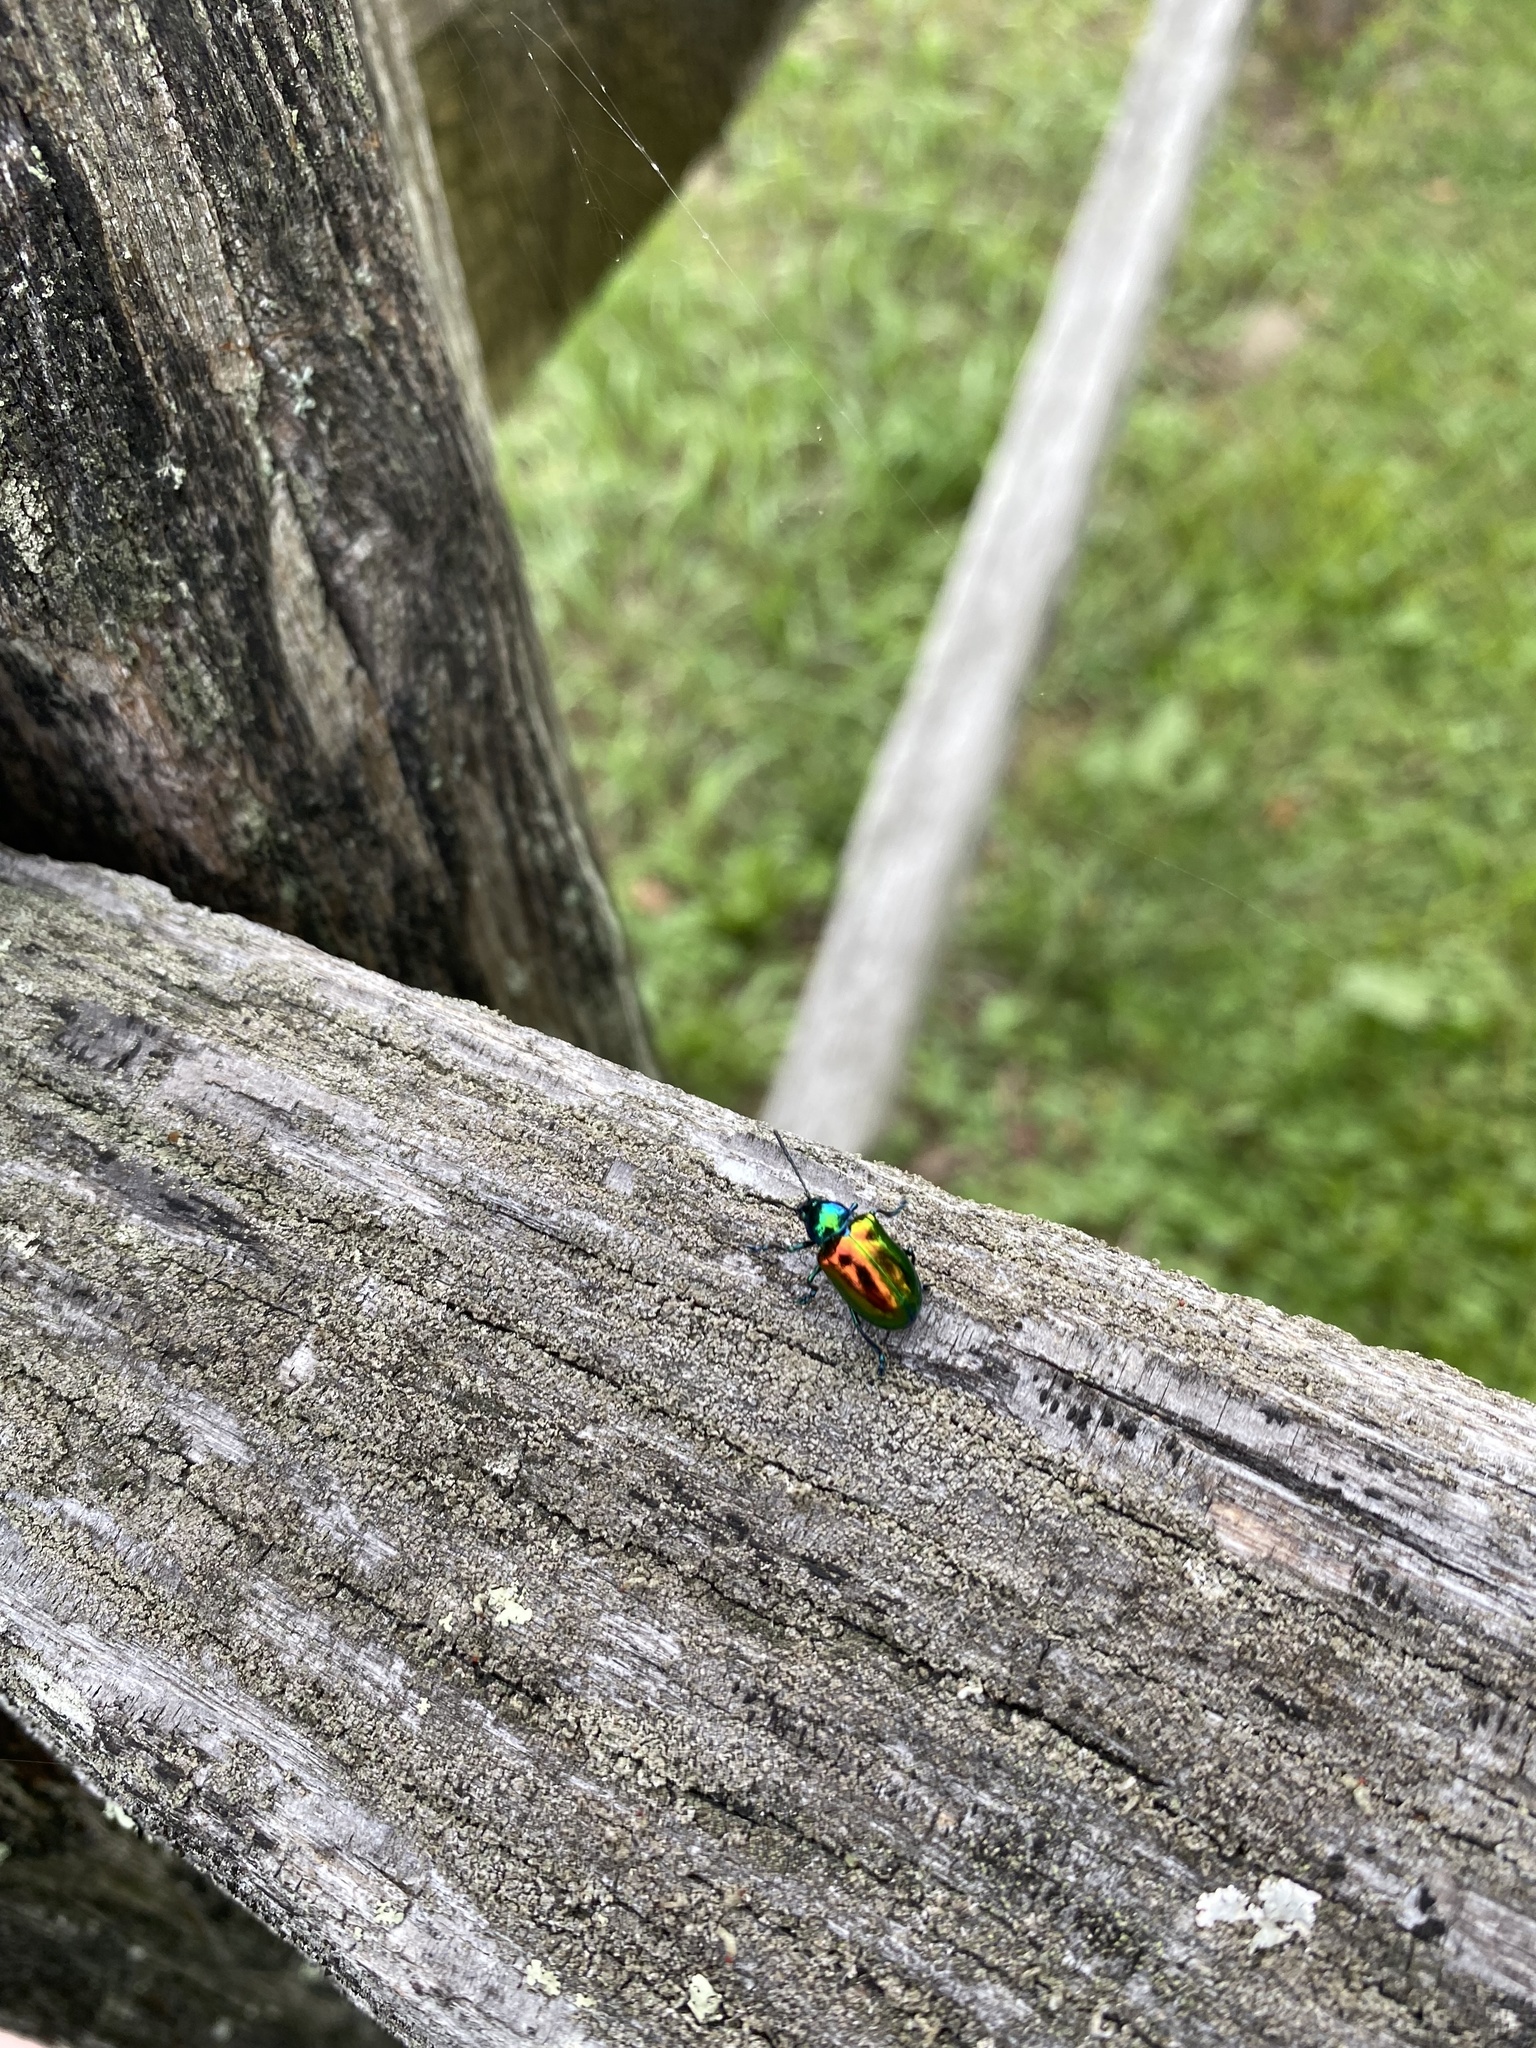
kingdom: Animalia
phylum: Arthropoda
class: Insecta
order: Coleoptera
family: Chrysomelidae
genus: Chrysochus
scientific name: Chrysochus auratus
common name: Dogbane leaf beetle
